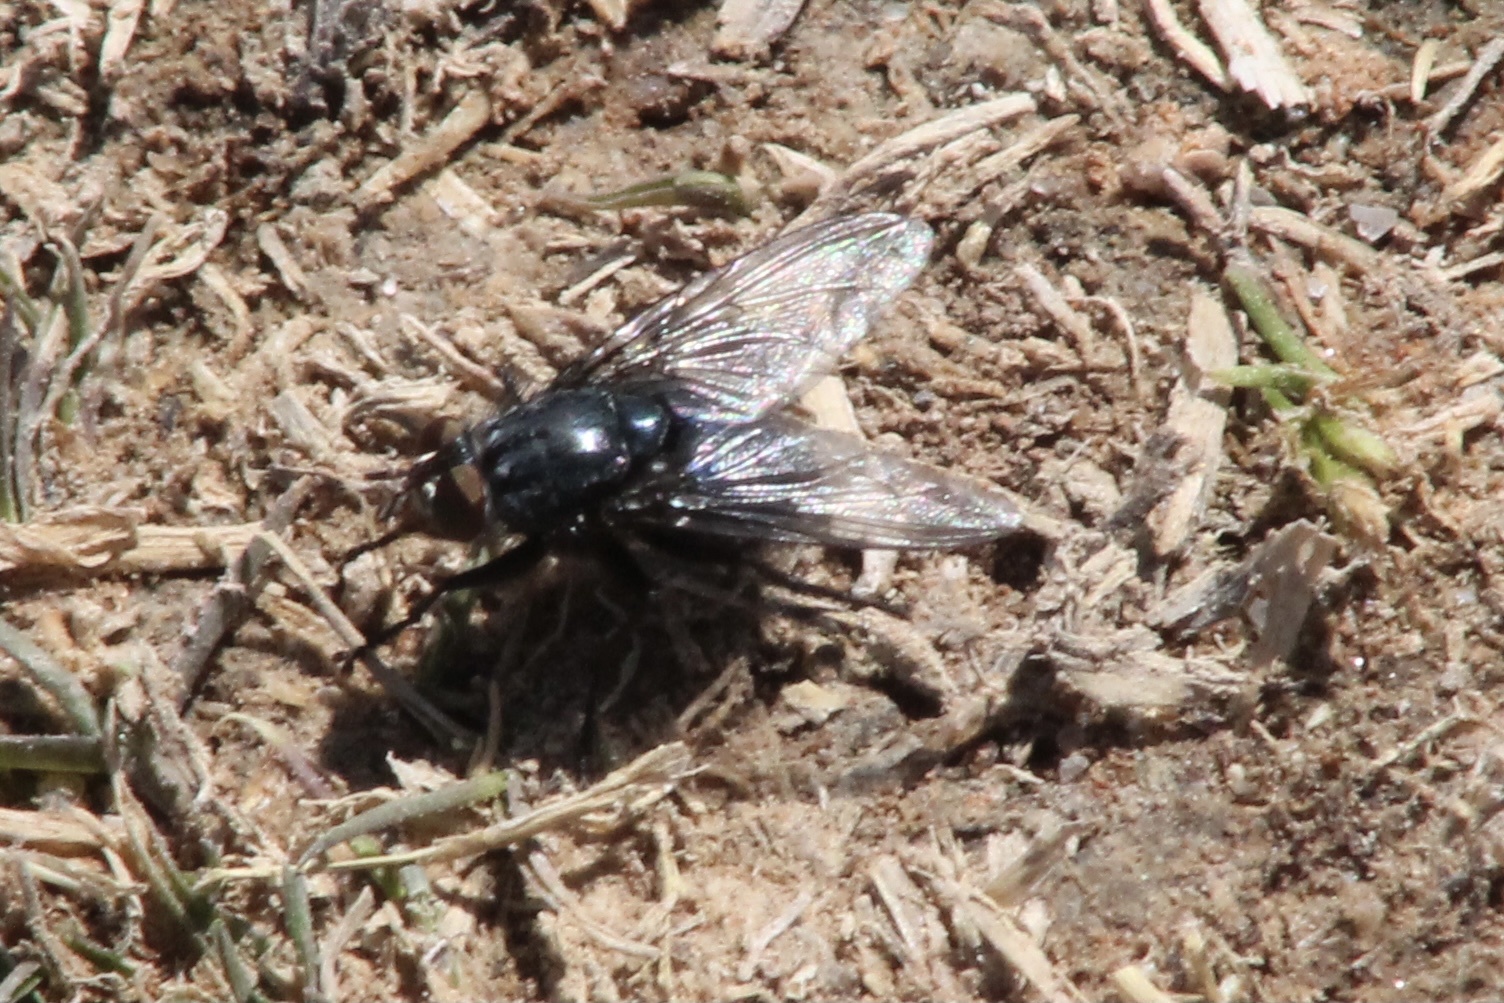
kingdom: Animalia
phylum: Arthropoda
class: Insecta
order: Diptera
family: Calliphoridae
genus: Cynomya
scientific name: Cynomya cadaverina
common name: Shiny blue bottle fly
